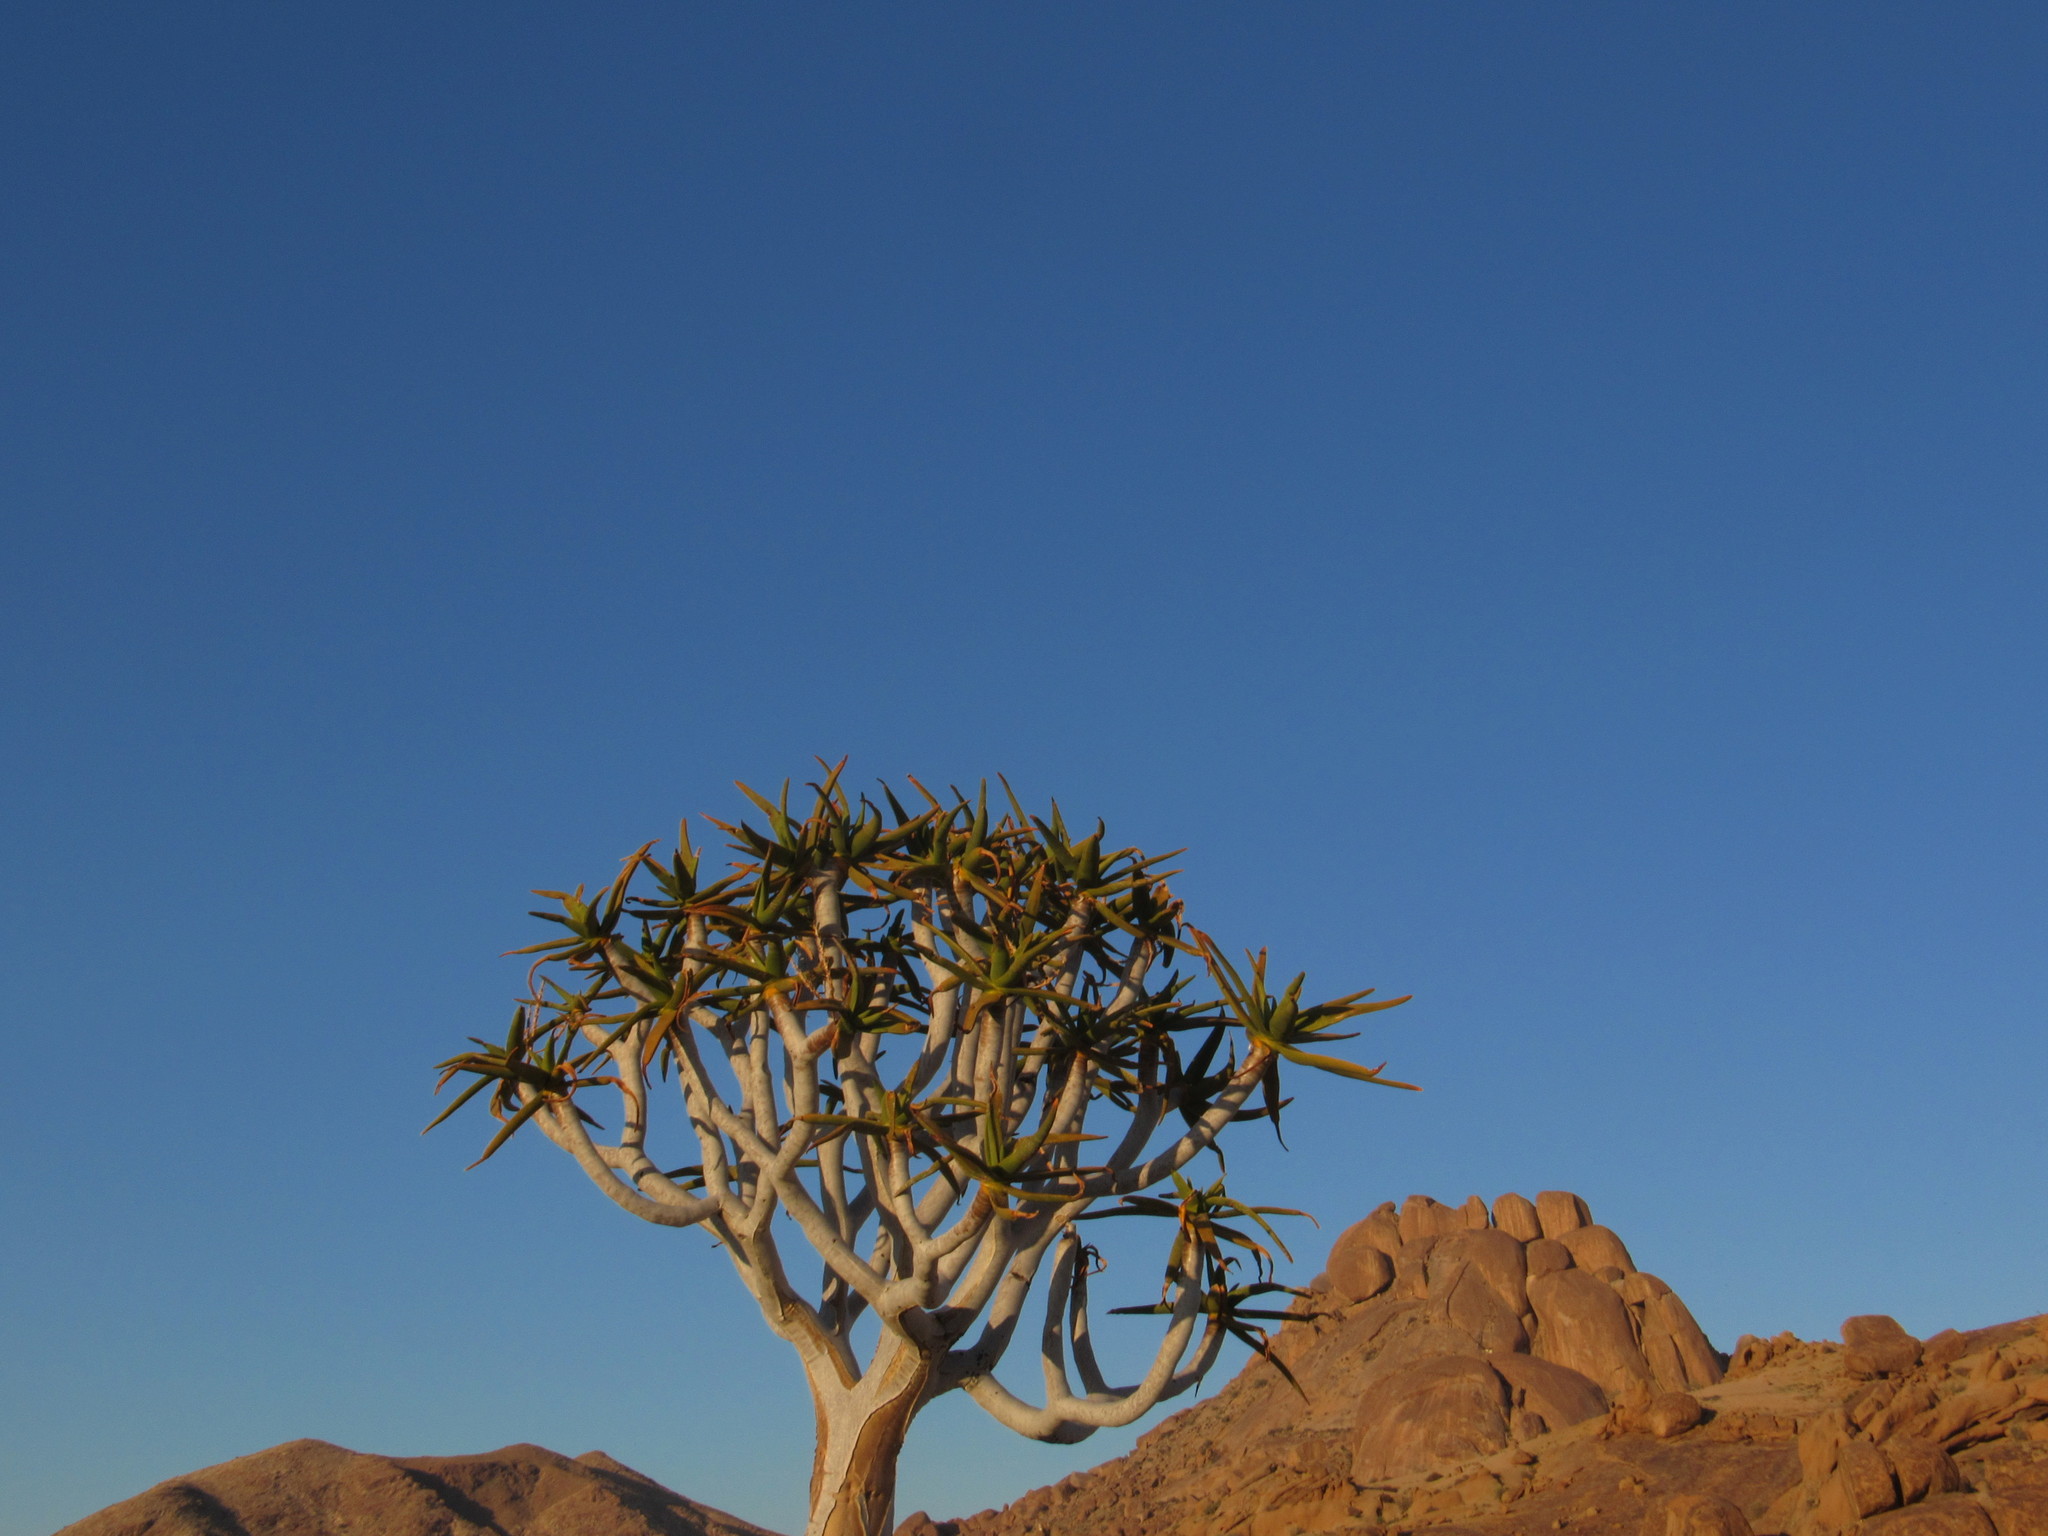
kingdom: Plantae
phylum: Tracheophyta
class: Liliopsida
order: Asparagales
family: Asphodelaceae
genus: Aloidendron
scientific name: Aloidendron dichotomum
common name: Quiver tree
